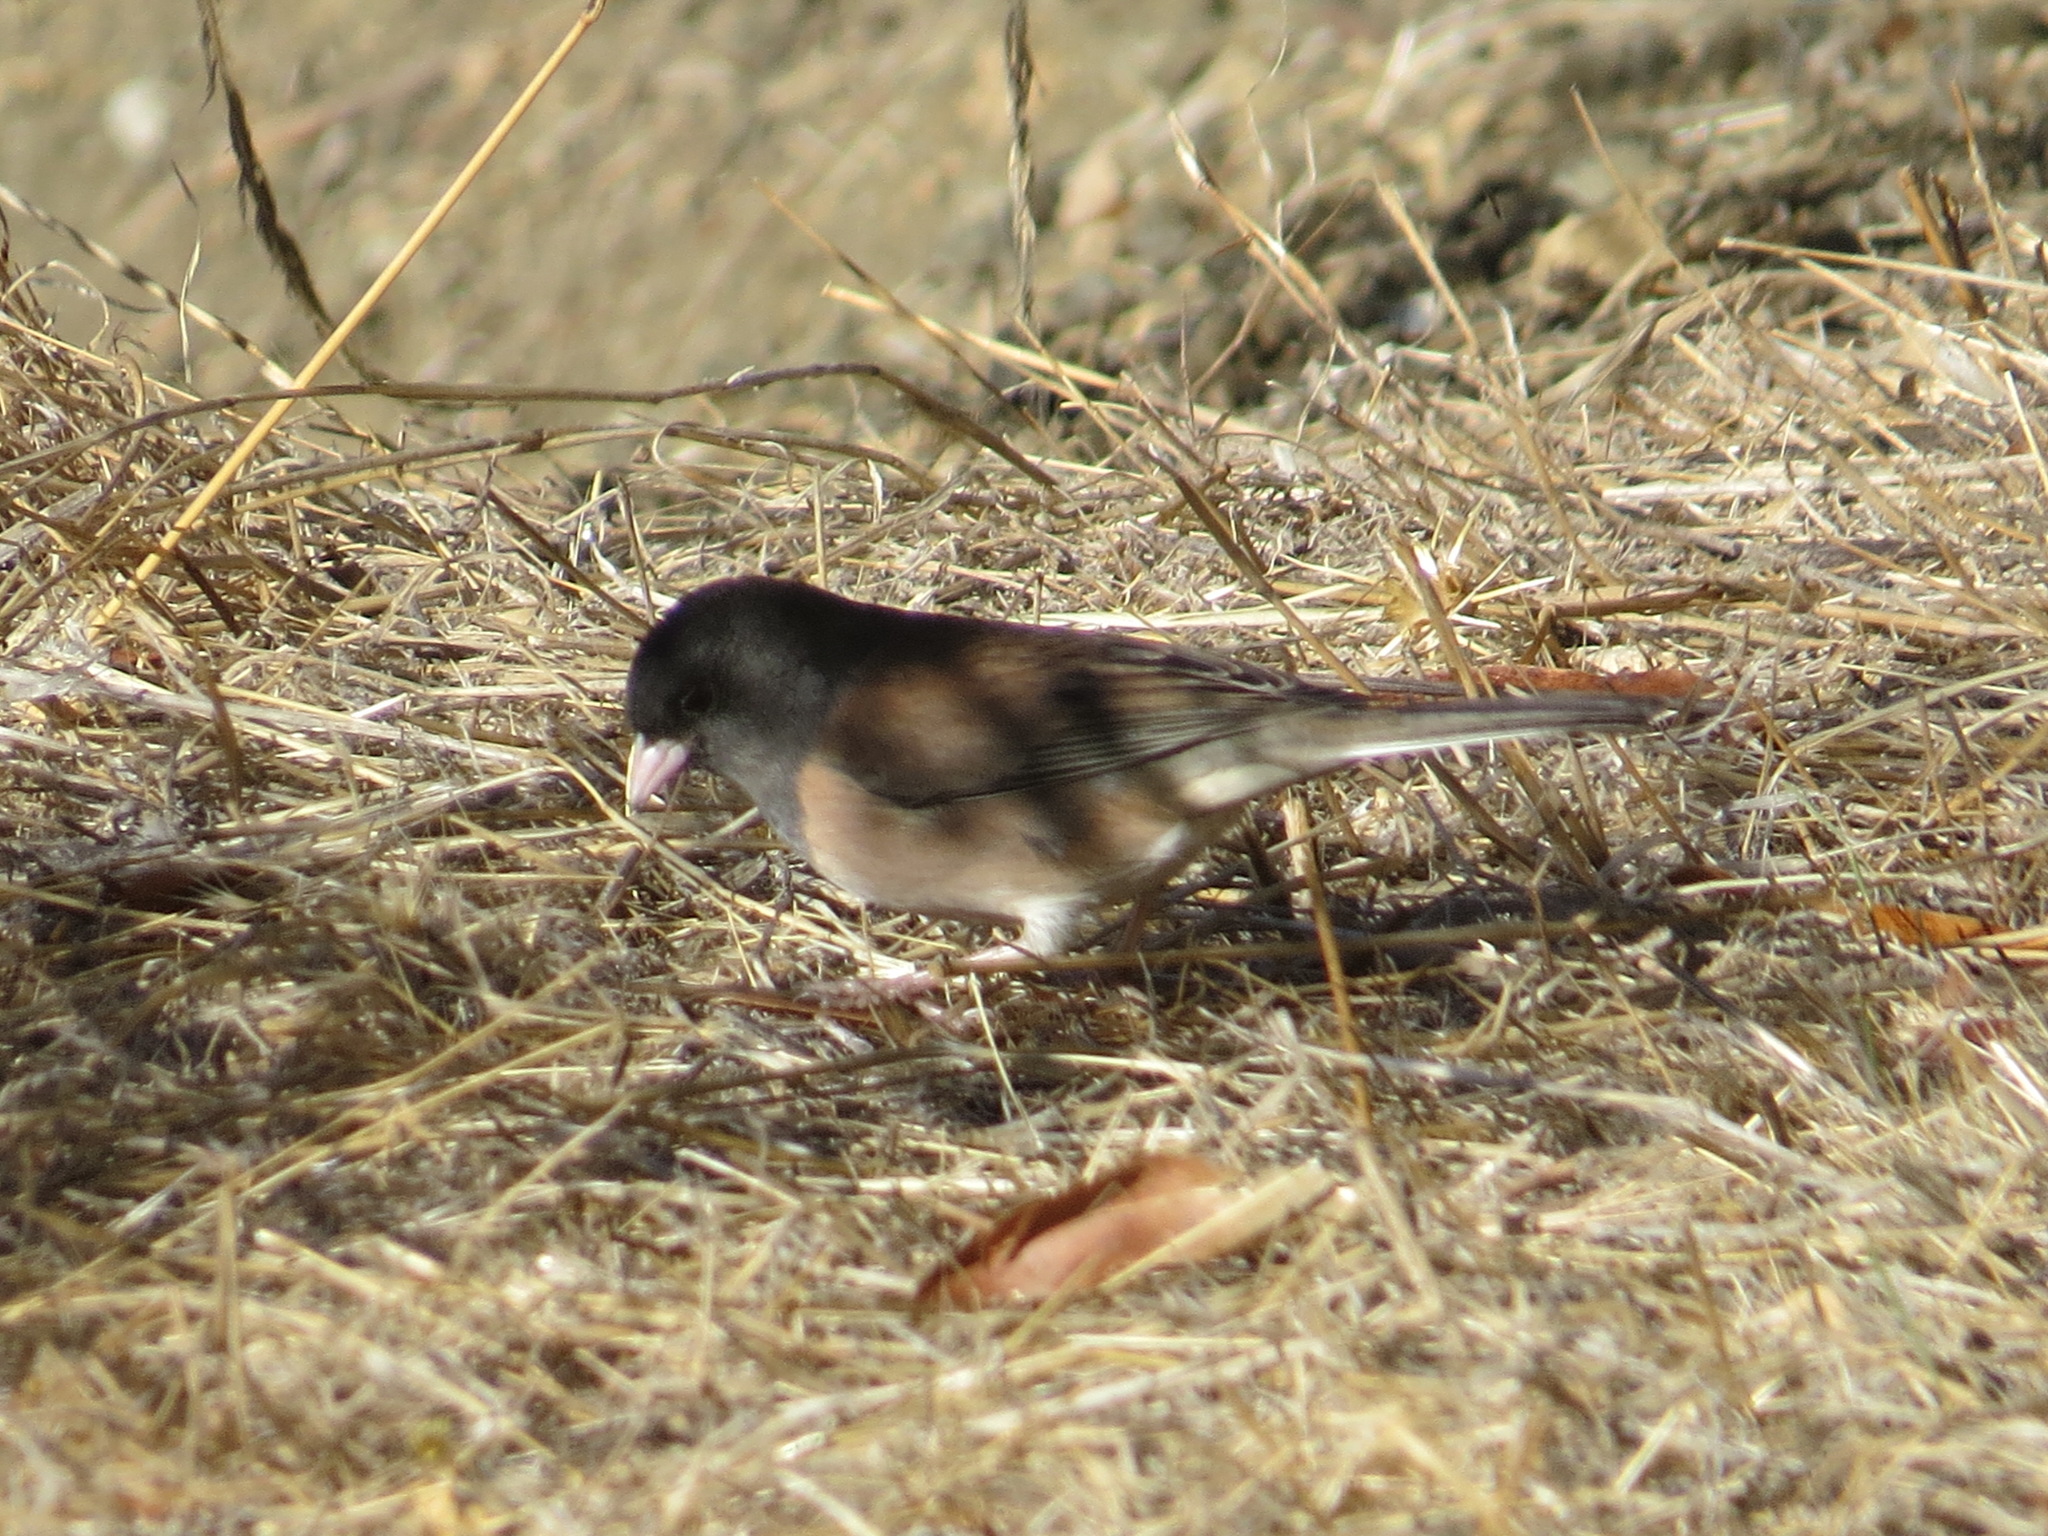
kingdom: Animalia
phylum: Chordata
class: Aves
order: Passeriformes
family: Passerellidae
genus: Junco
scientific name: Junco hyemalis
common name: Dark-eyed junco
